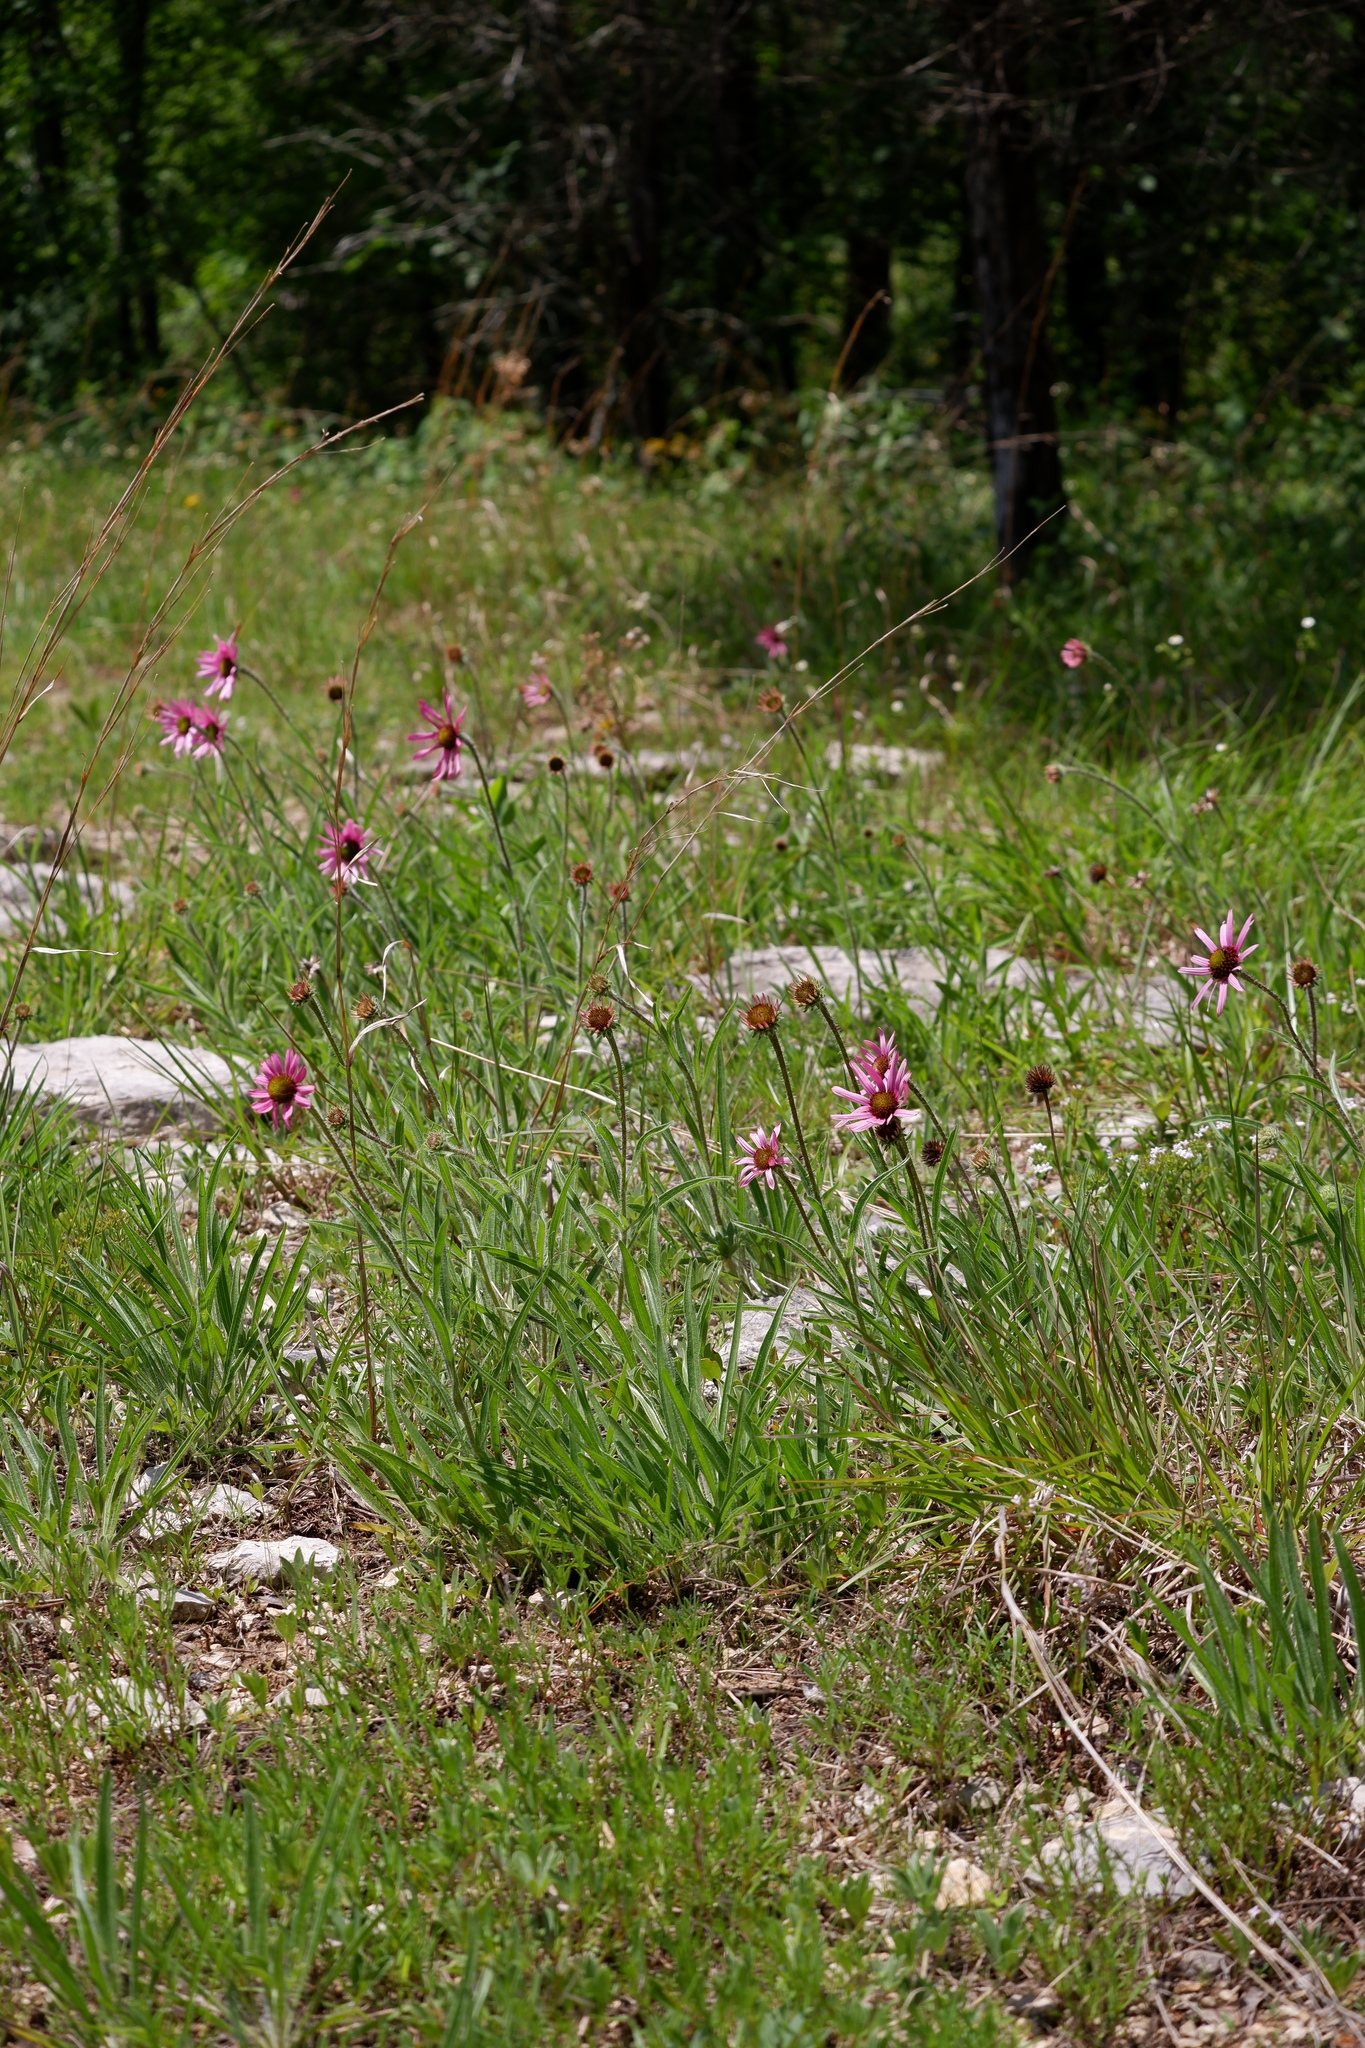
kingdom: Plantae
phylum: Tracheophyta
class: Magnoliopsida
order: Asterales
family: Asteraceae
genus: Echinacea
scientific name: Echinacea tennesseensis
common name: Tennessee purple-coneflower
